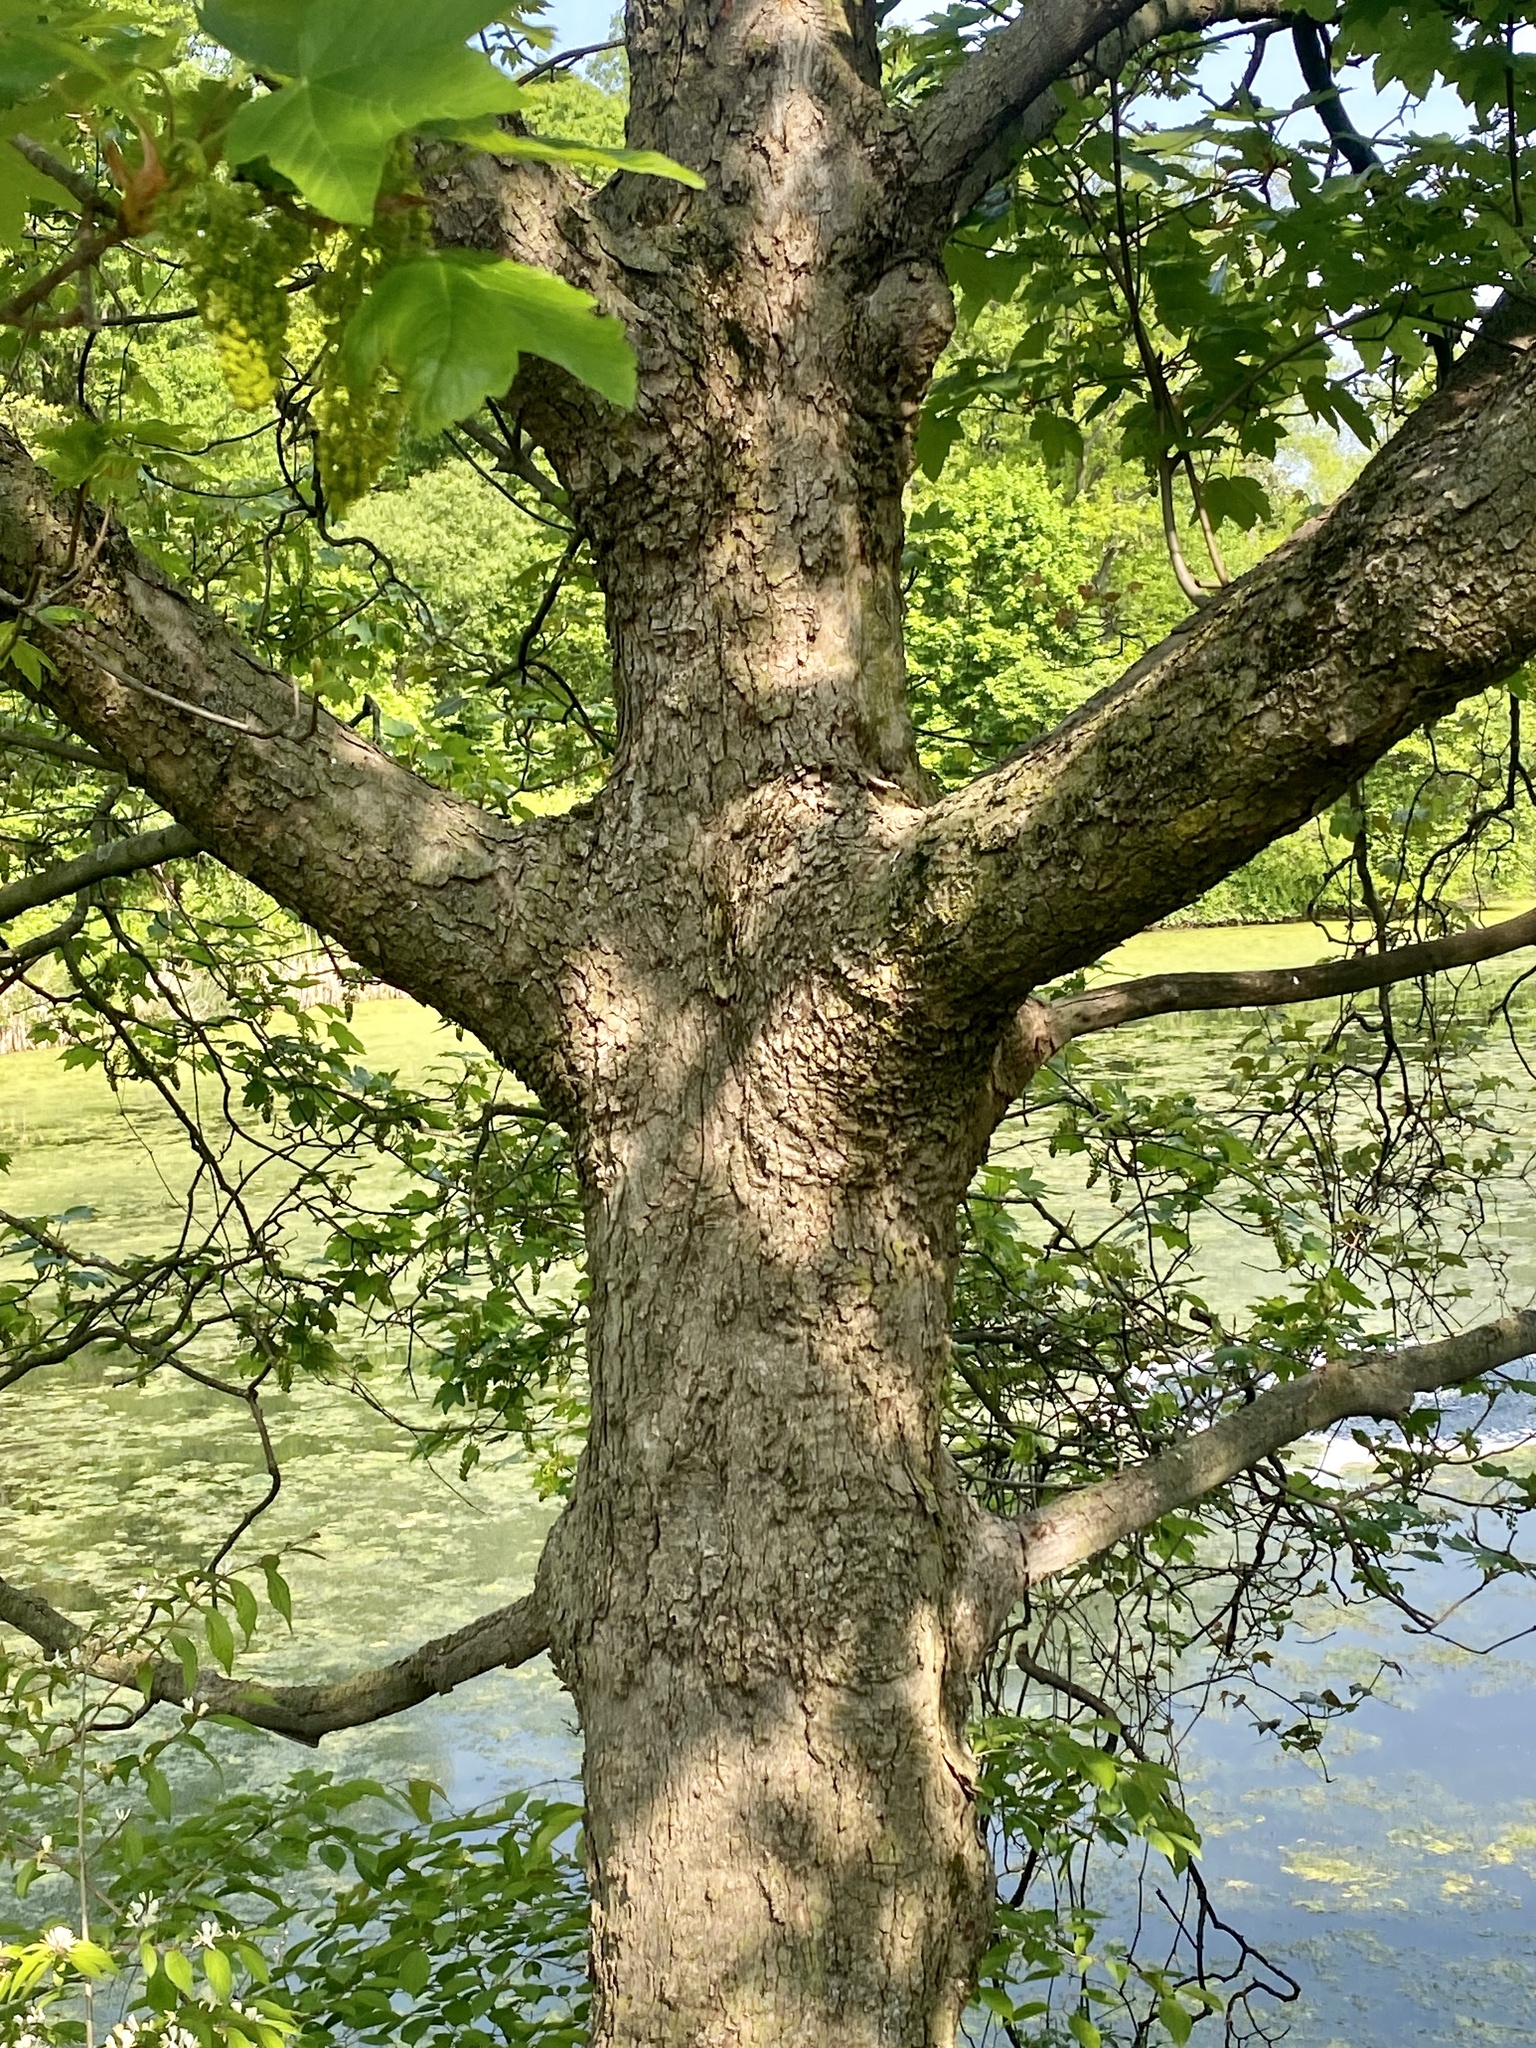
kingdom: Plantae
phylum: Tracheophyta
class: Magnoliopsida
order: Sapindales
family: Sapindaceae
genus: Acer
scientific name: Acer pseudoplatanus
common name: Sycamore
